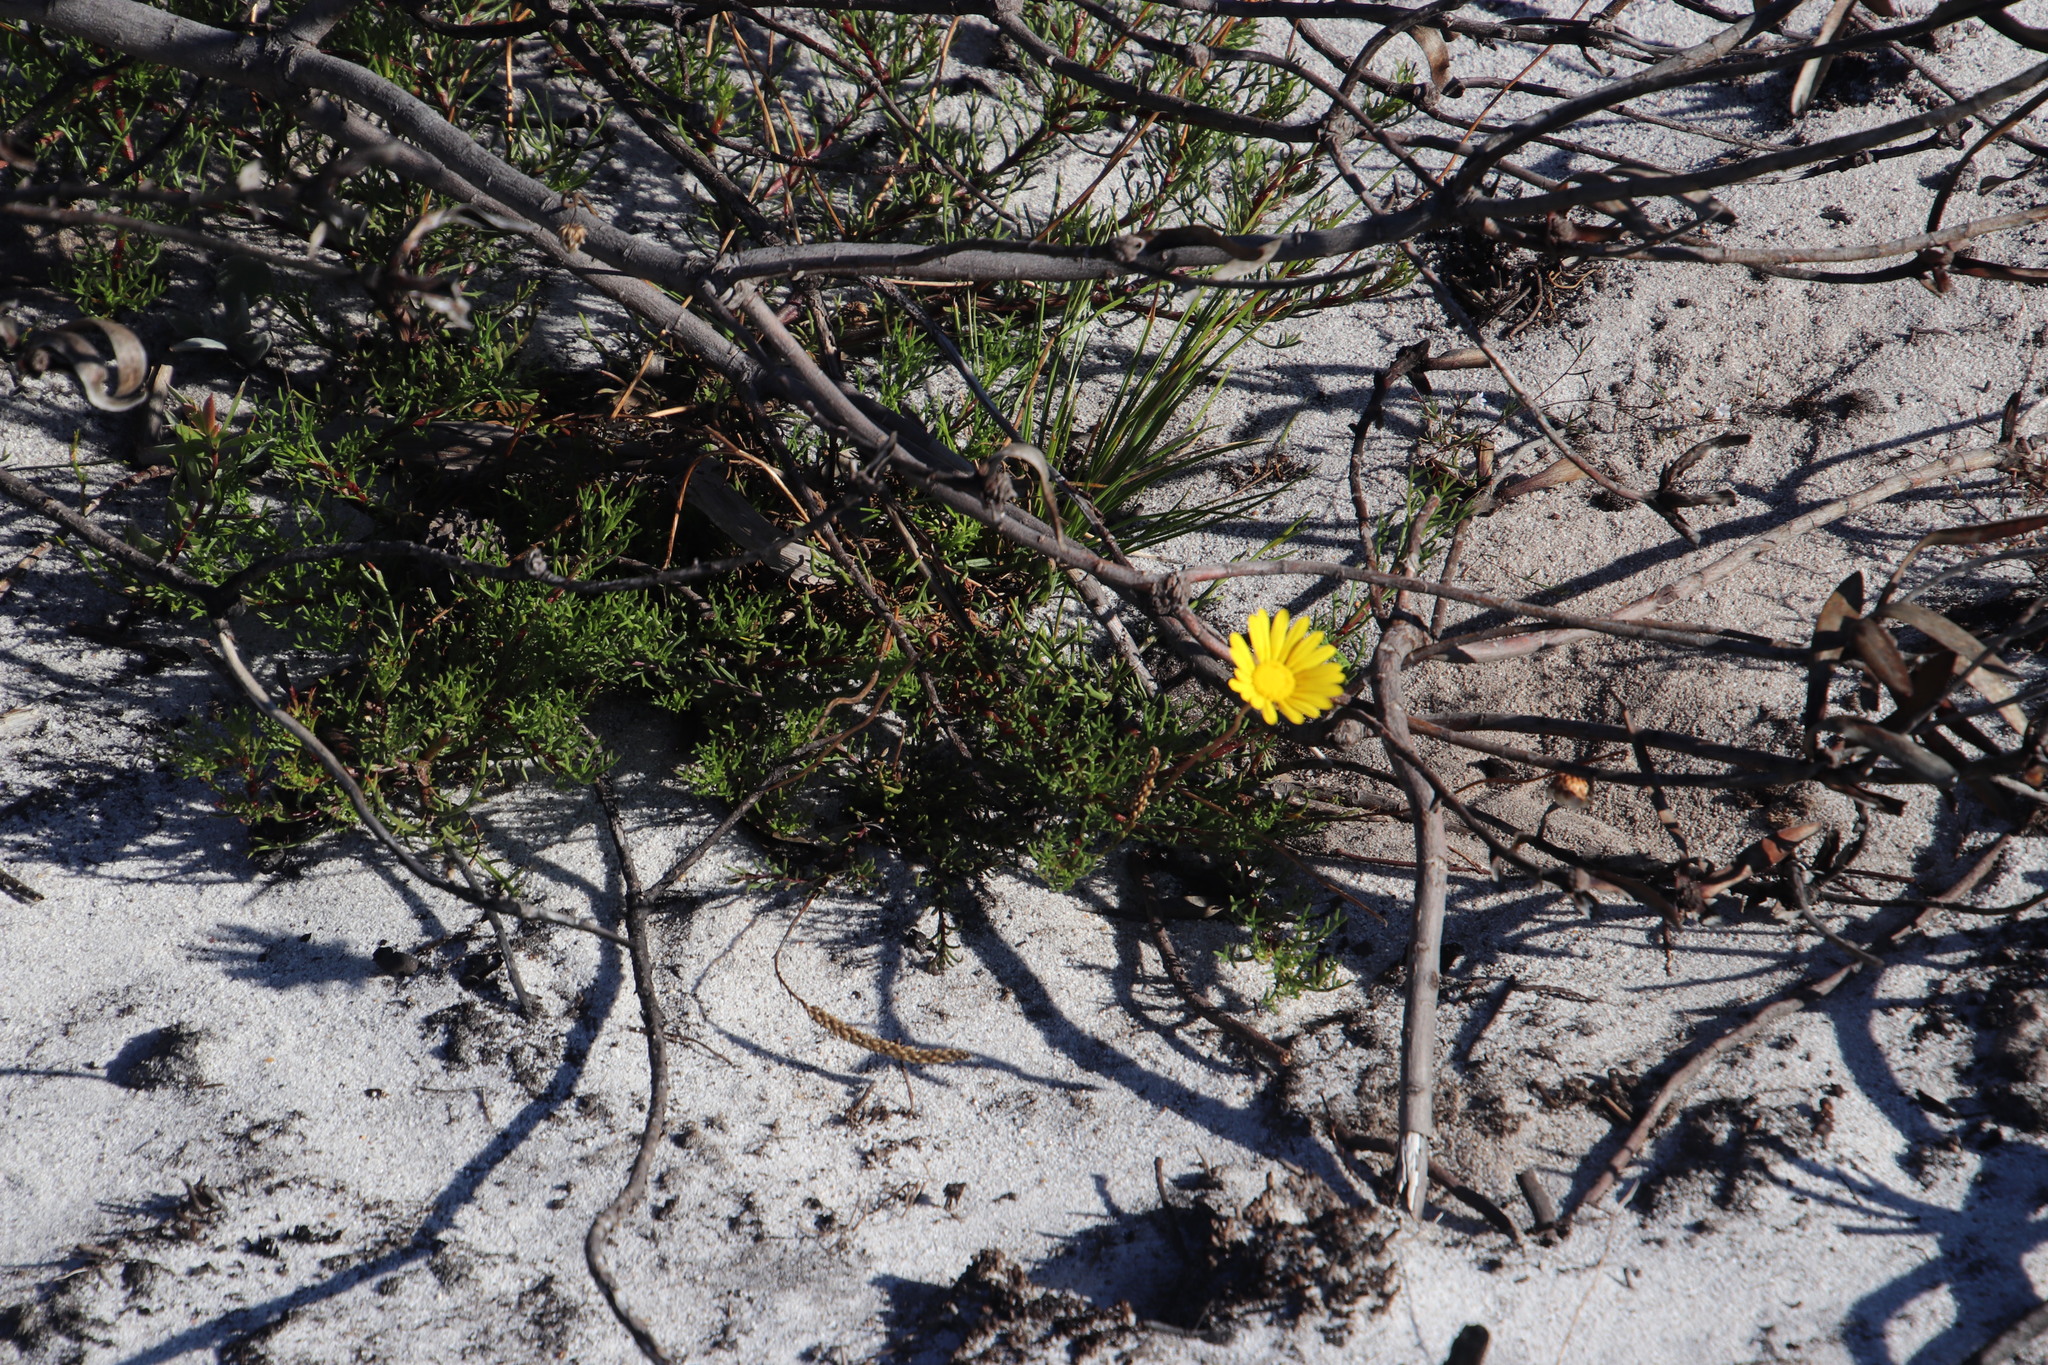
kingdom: Plantae
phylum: Tracheophyta
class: Magnoliopsida
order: Asterales
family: Asteraceae
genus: Ursinia
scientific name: Ursinia paleacea
